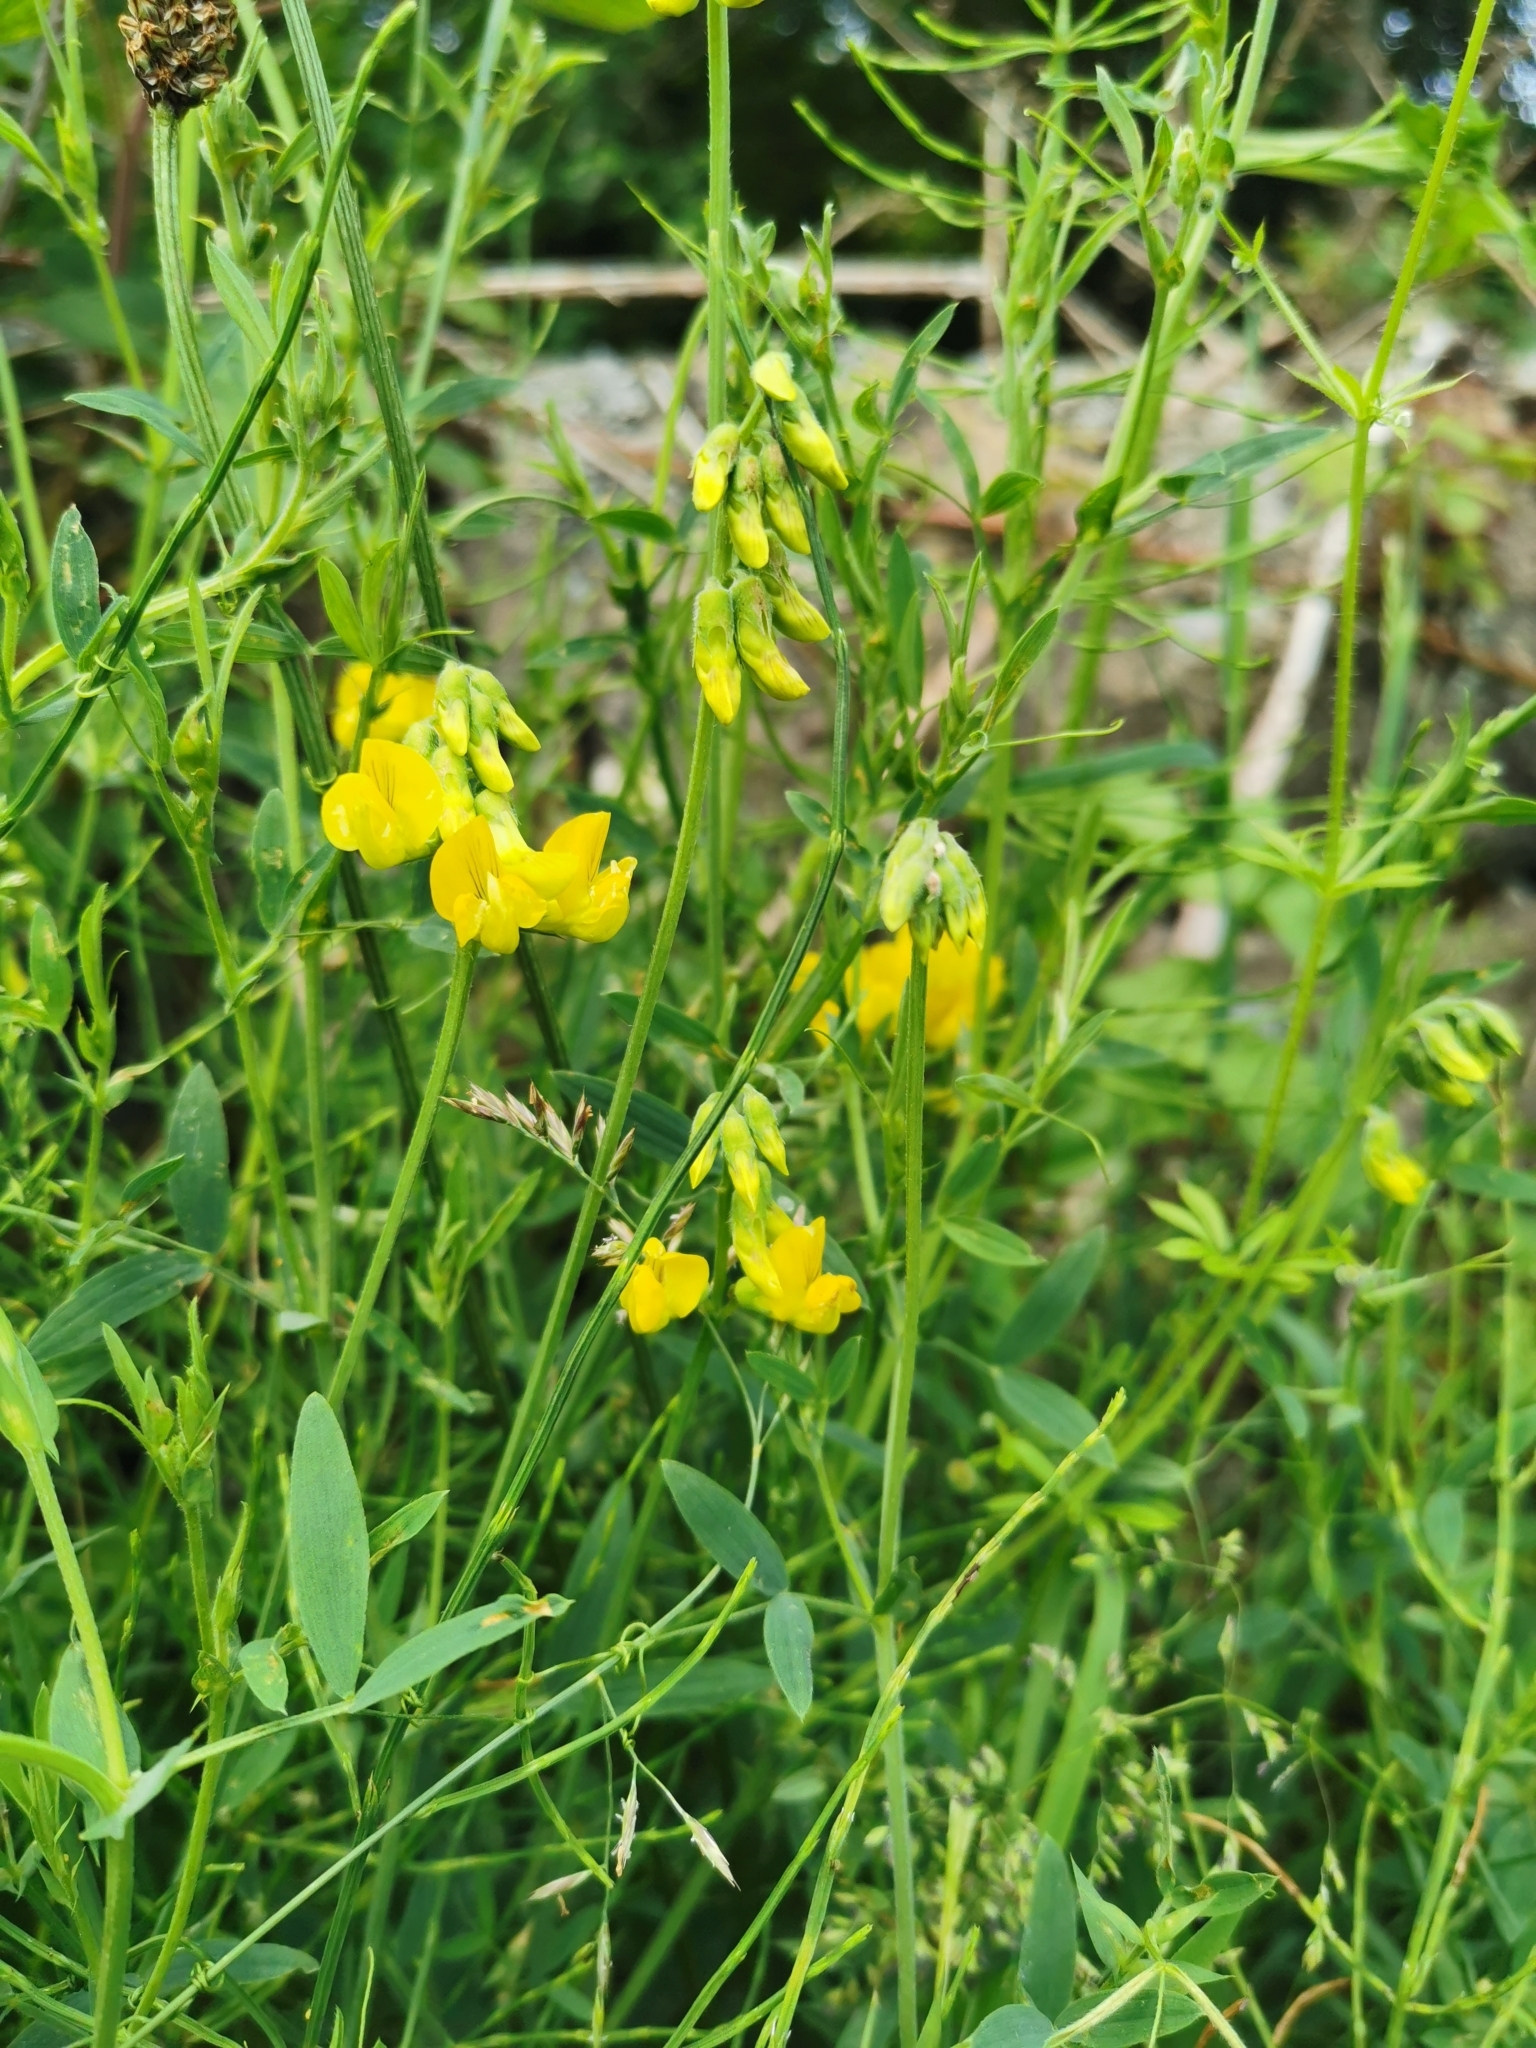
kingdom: Plantae
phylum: Tracheophyta
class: Magnoliopsida
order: Fabales
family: Fabaceae
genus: Lathyrus
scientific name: Lathyrus pratensis
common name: Meadow vetchling
